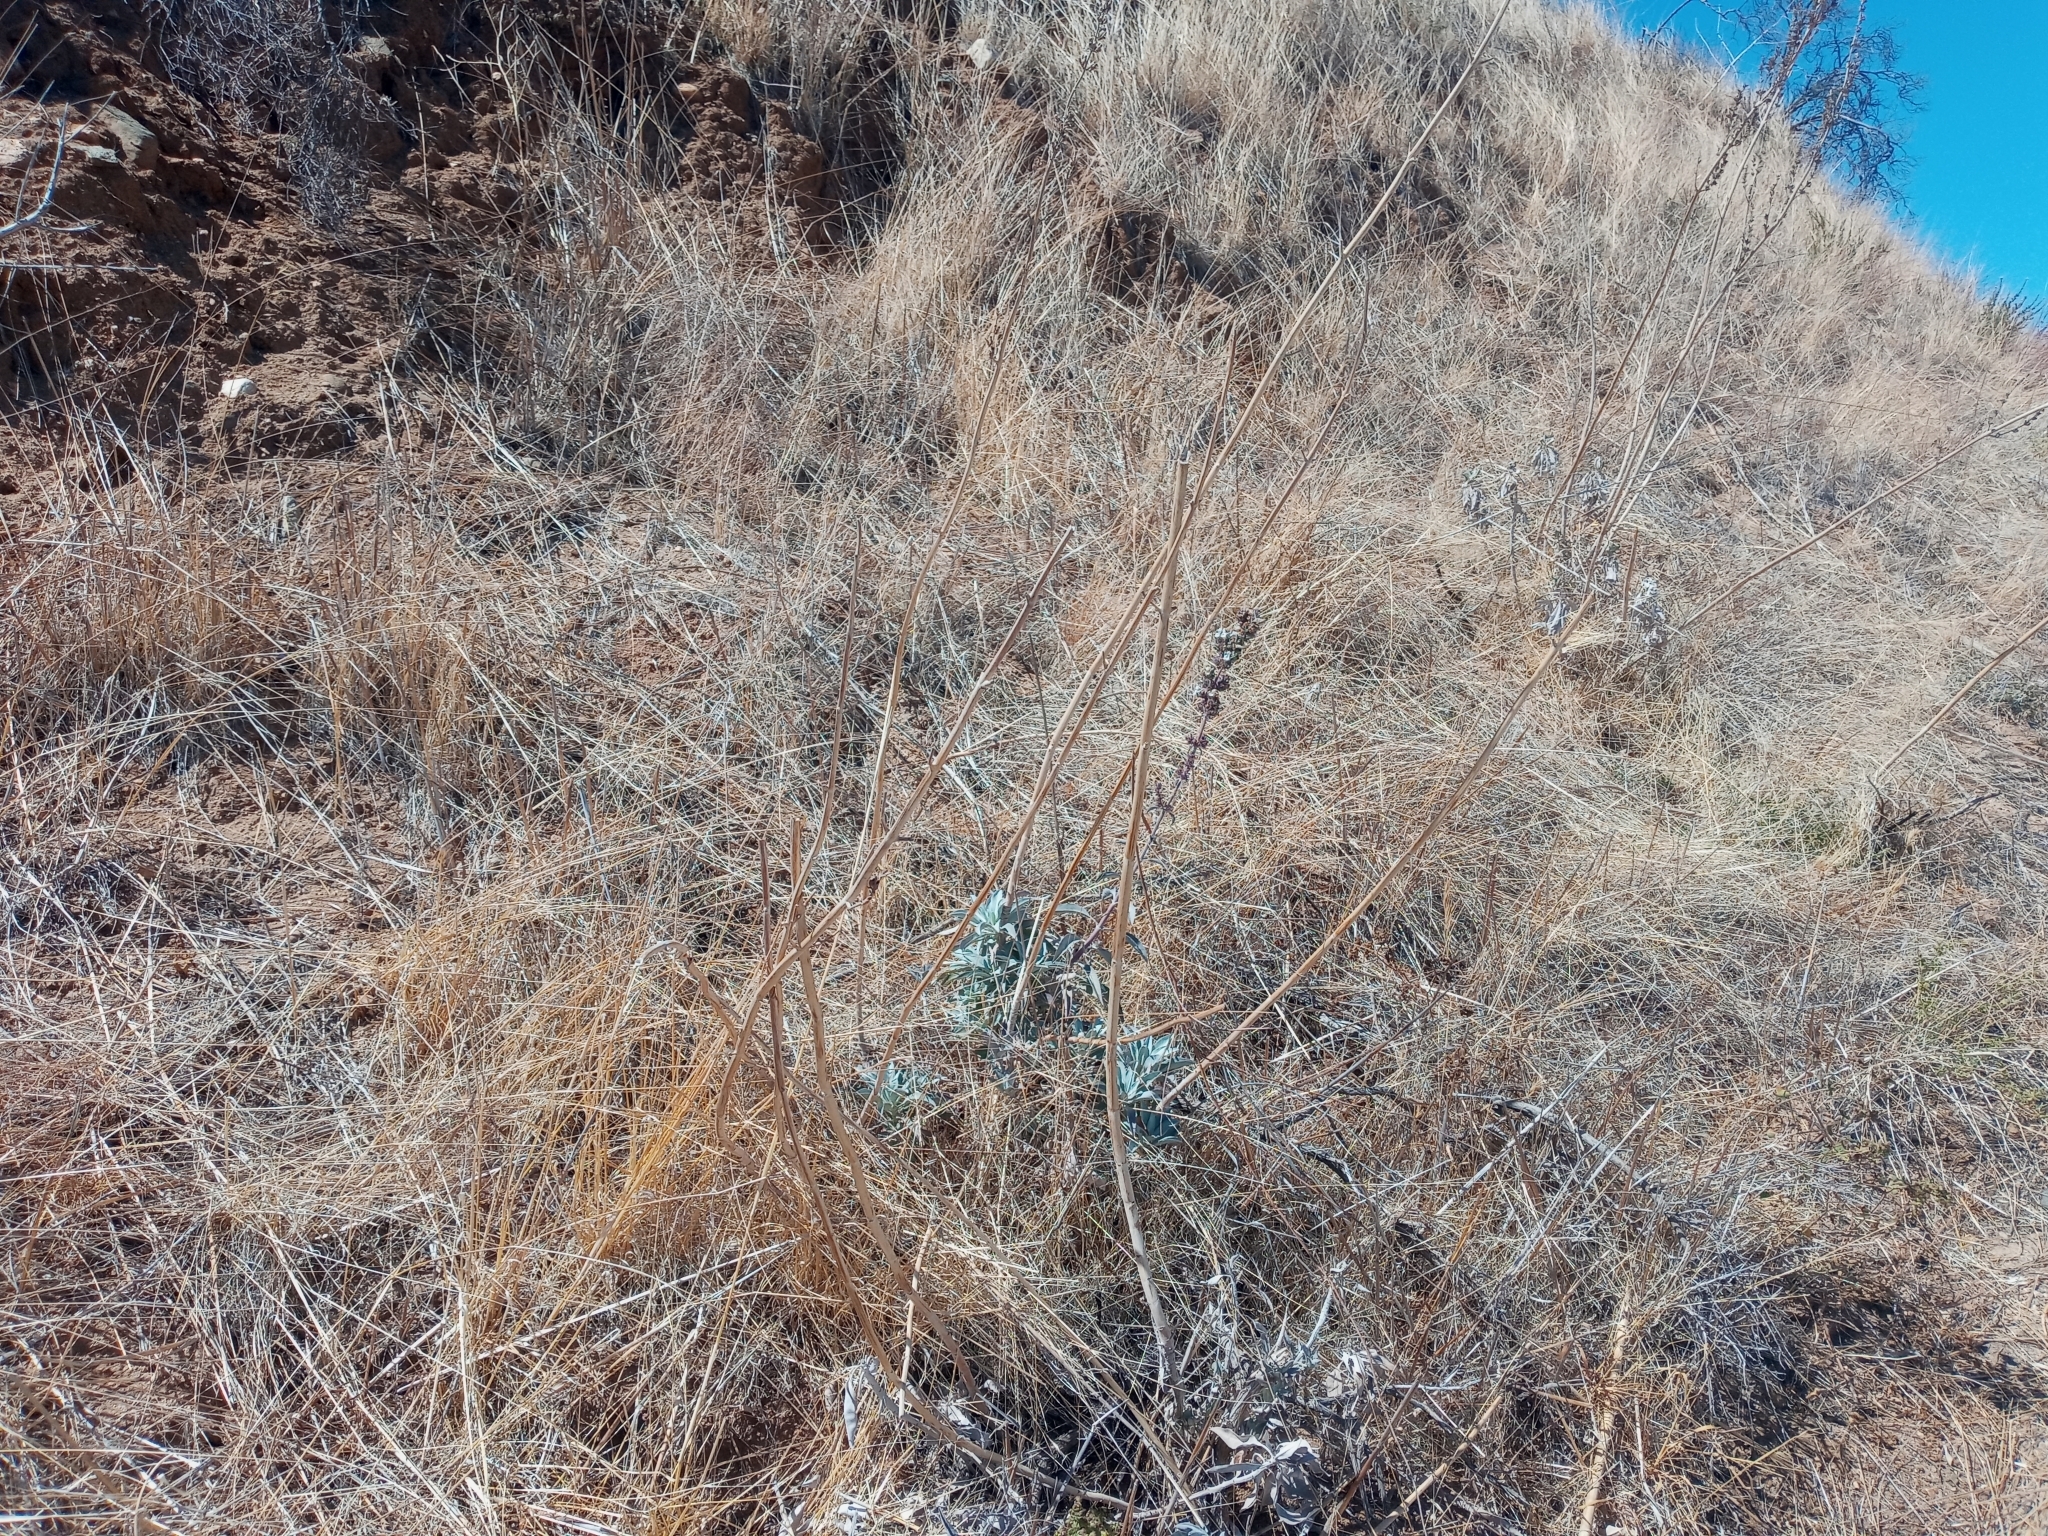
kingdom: Plantae
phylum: Tracheophyta
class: Magnoliopsida
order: Lamiales
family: Lamiaceae
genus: Salvia
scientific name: Salvia apiana
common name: White sage
